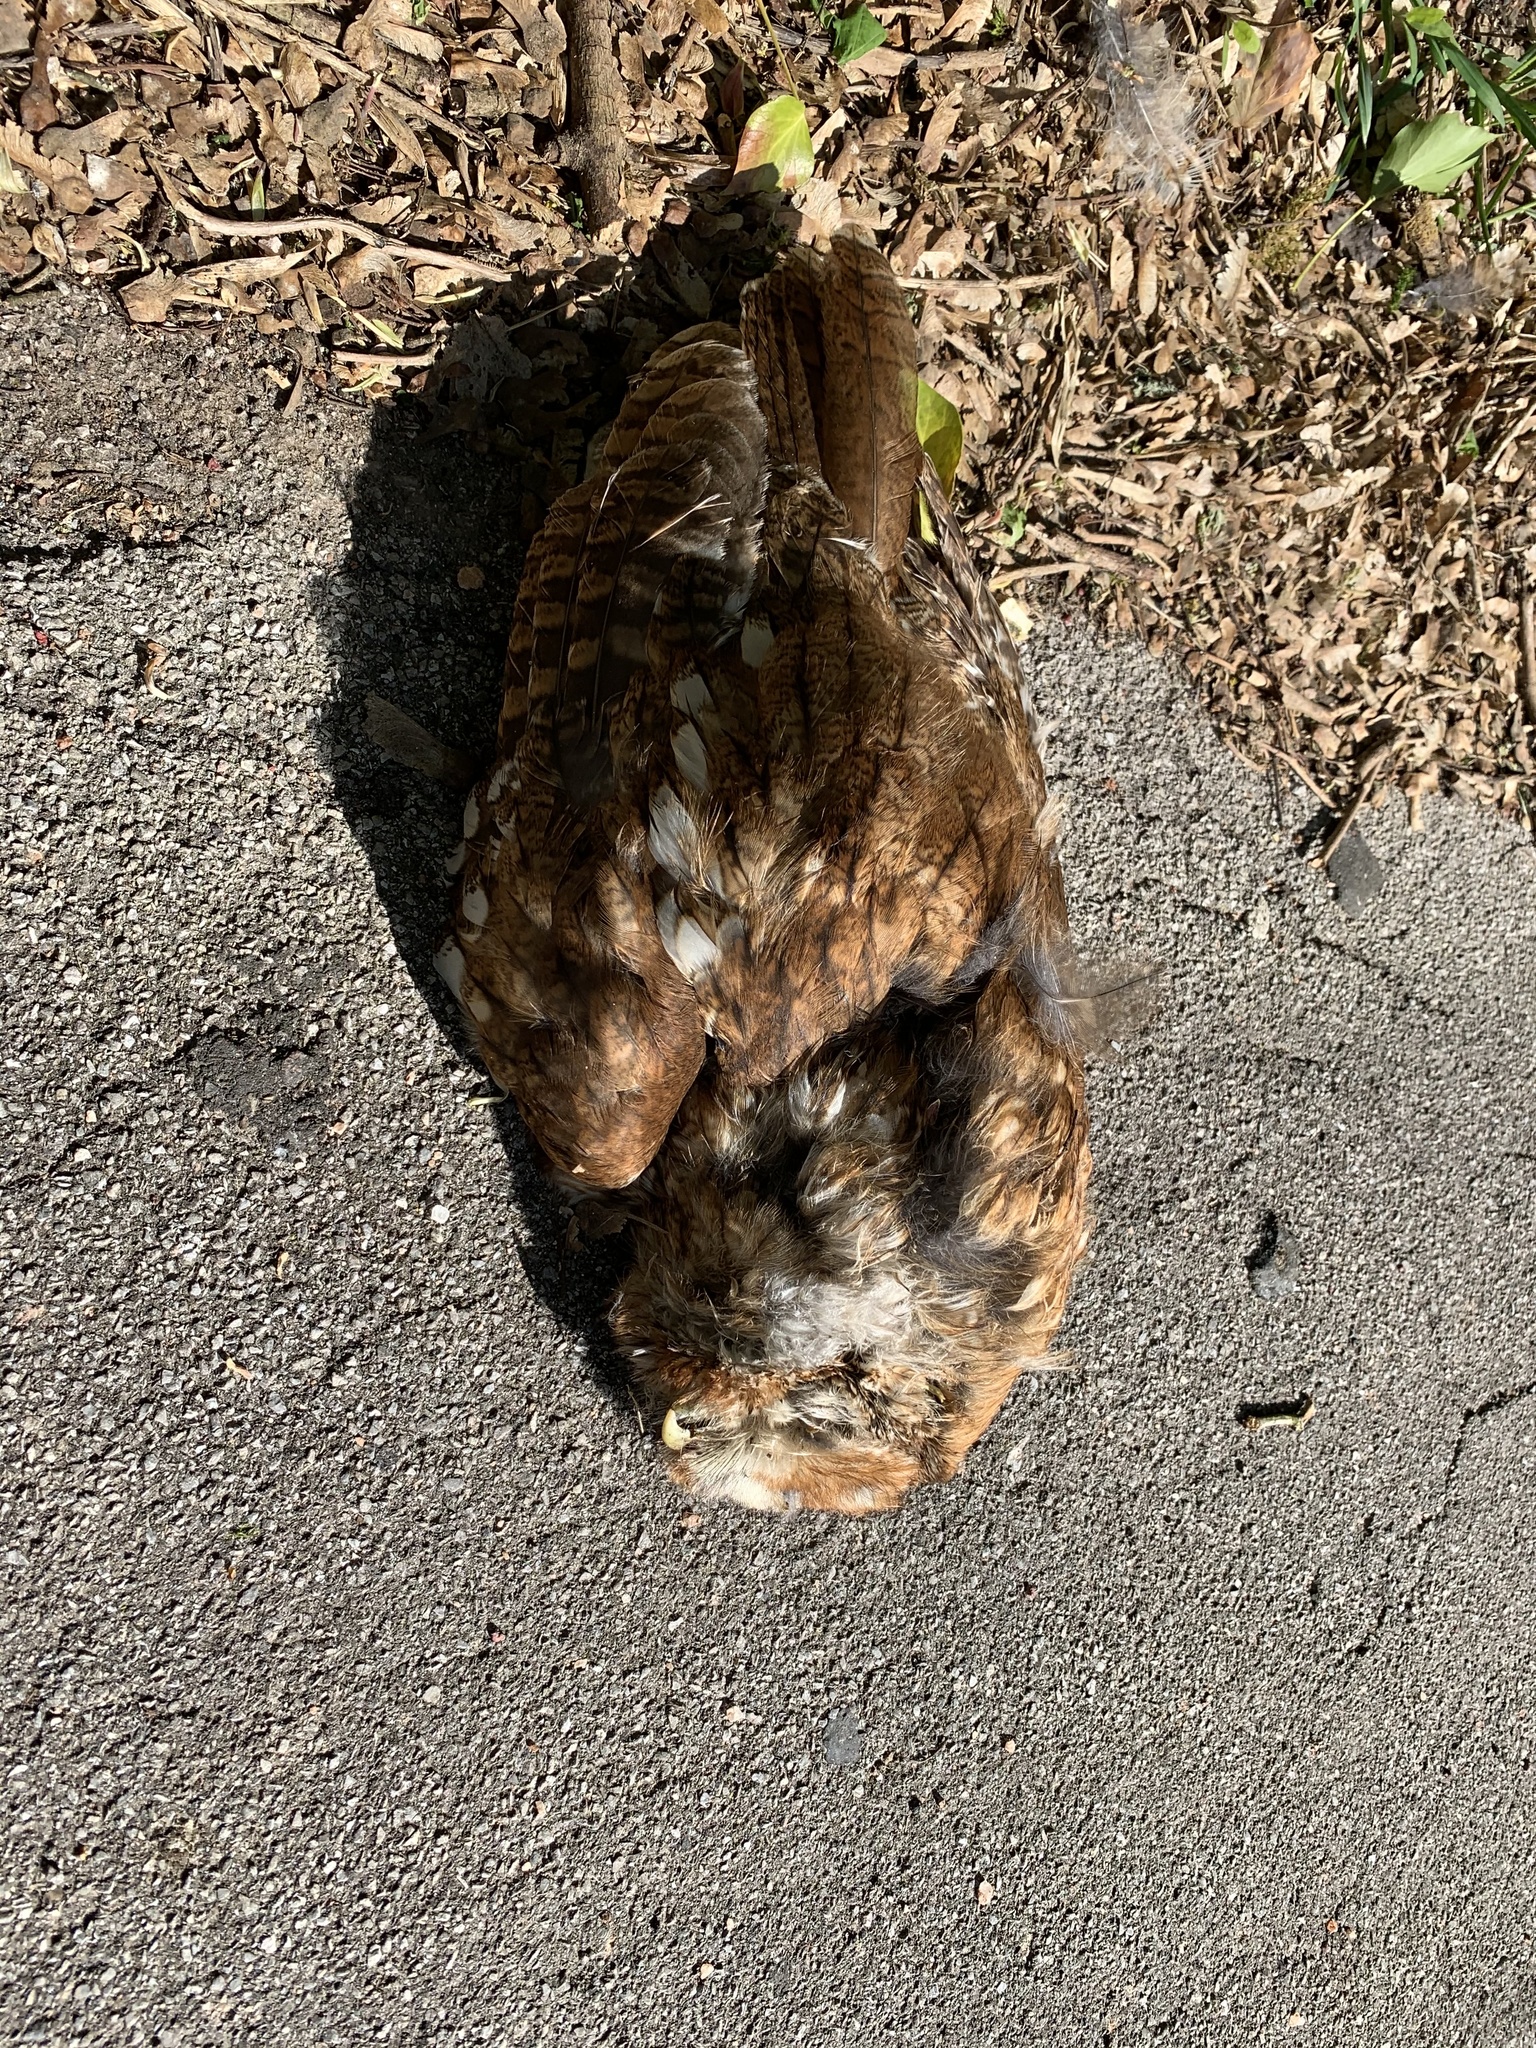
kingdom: Animalia
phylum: Chordata
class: Aves
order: Strigiformes
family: Strigidae
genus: Strix
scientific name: Strix aluco
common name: Tawny owl
